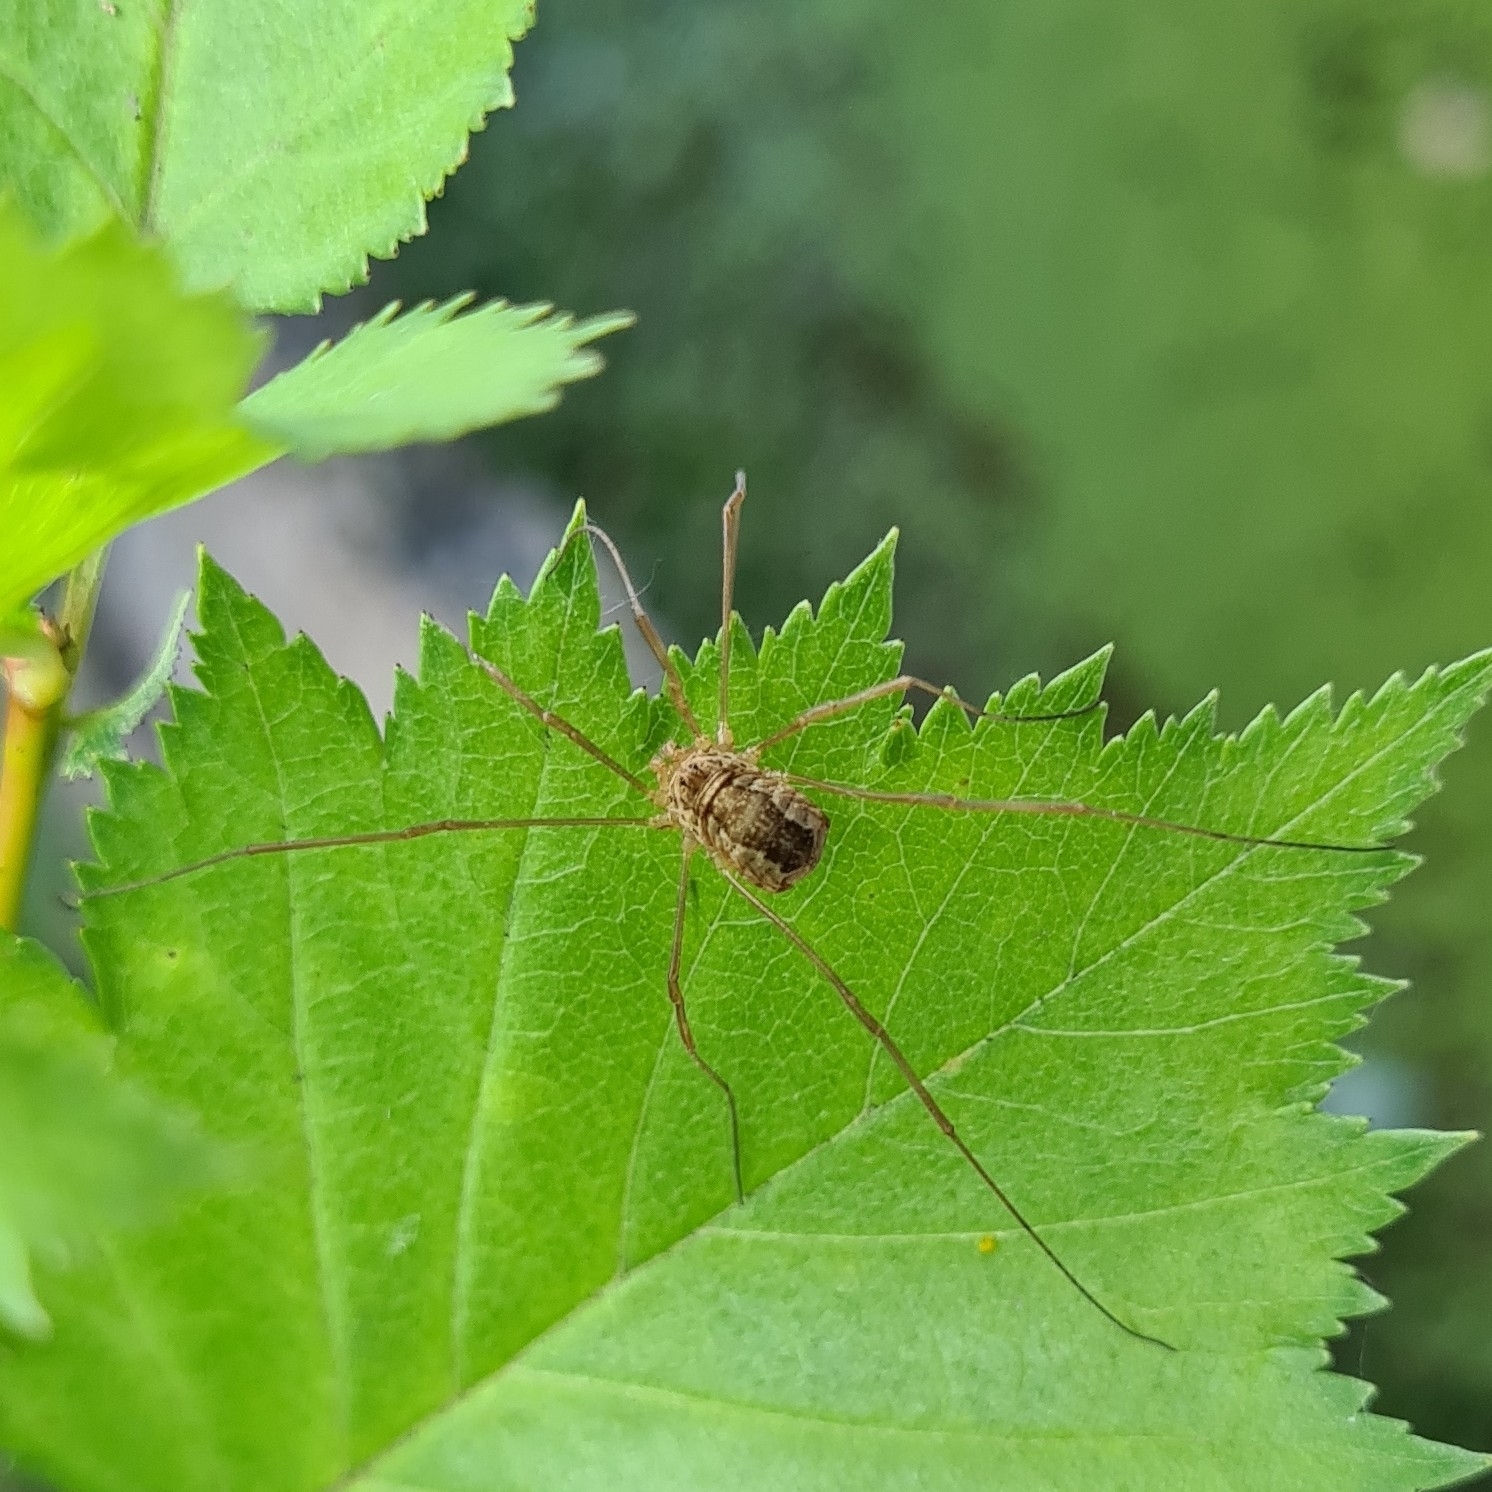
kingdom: Animalia
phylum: Arthropoda
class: Arachnida
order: Opiliones
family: Phalangiidae
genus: Rilaena
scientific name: Rilaena triangularis
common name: Spring harvestman
